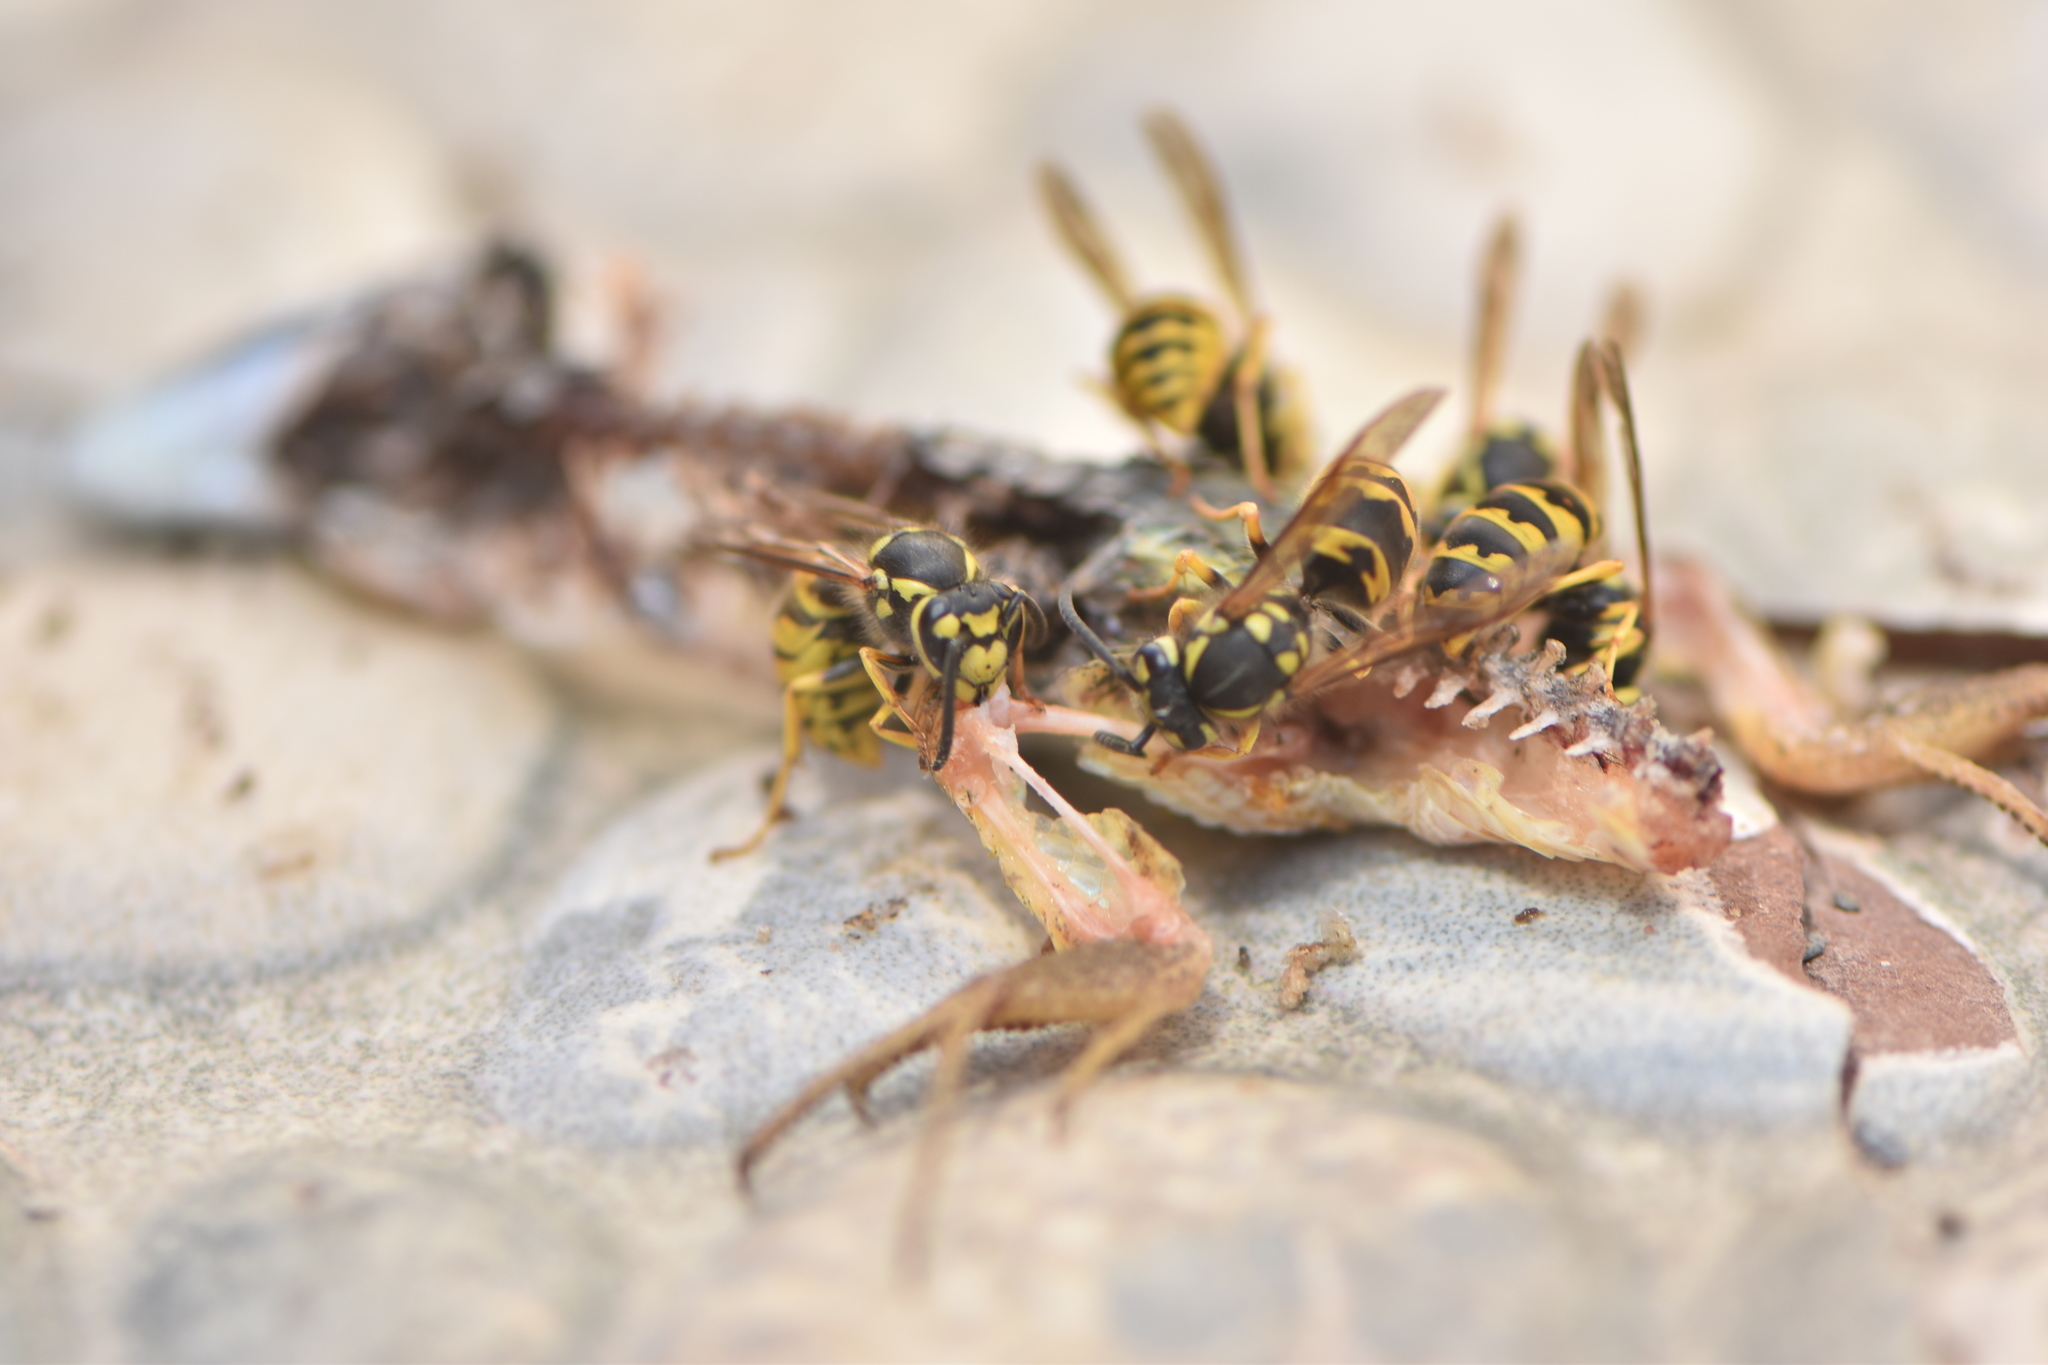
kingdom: Animalia
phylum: Arthropoda
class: Insecta
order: Hymenoptera
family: Vespidae
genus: Vespula
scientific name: Vespula germanica
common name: German wasp
